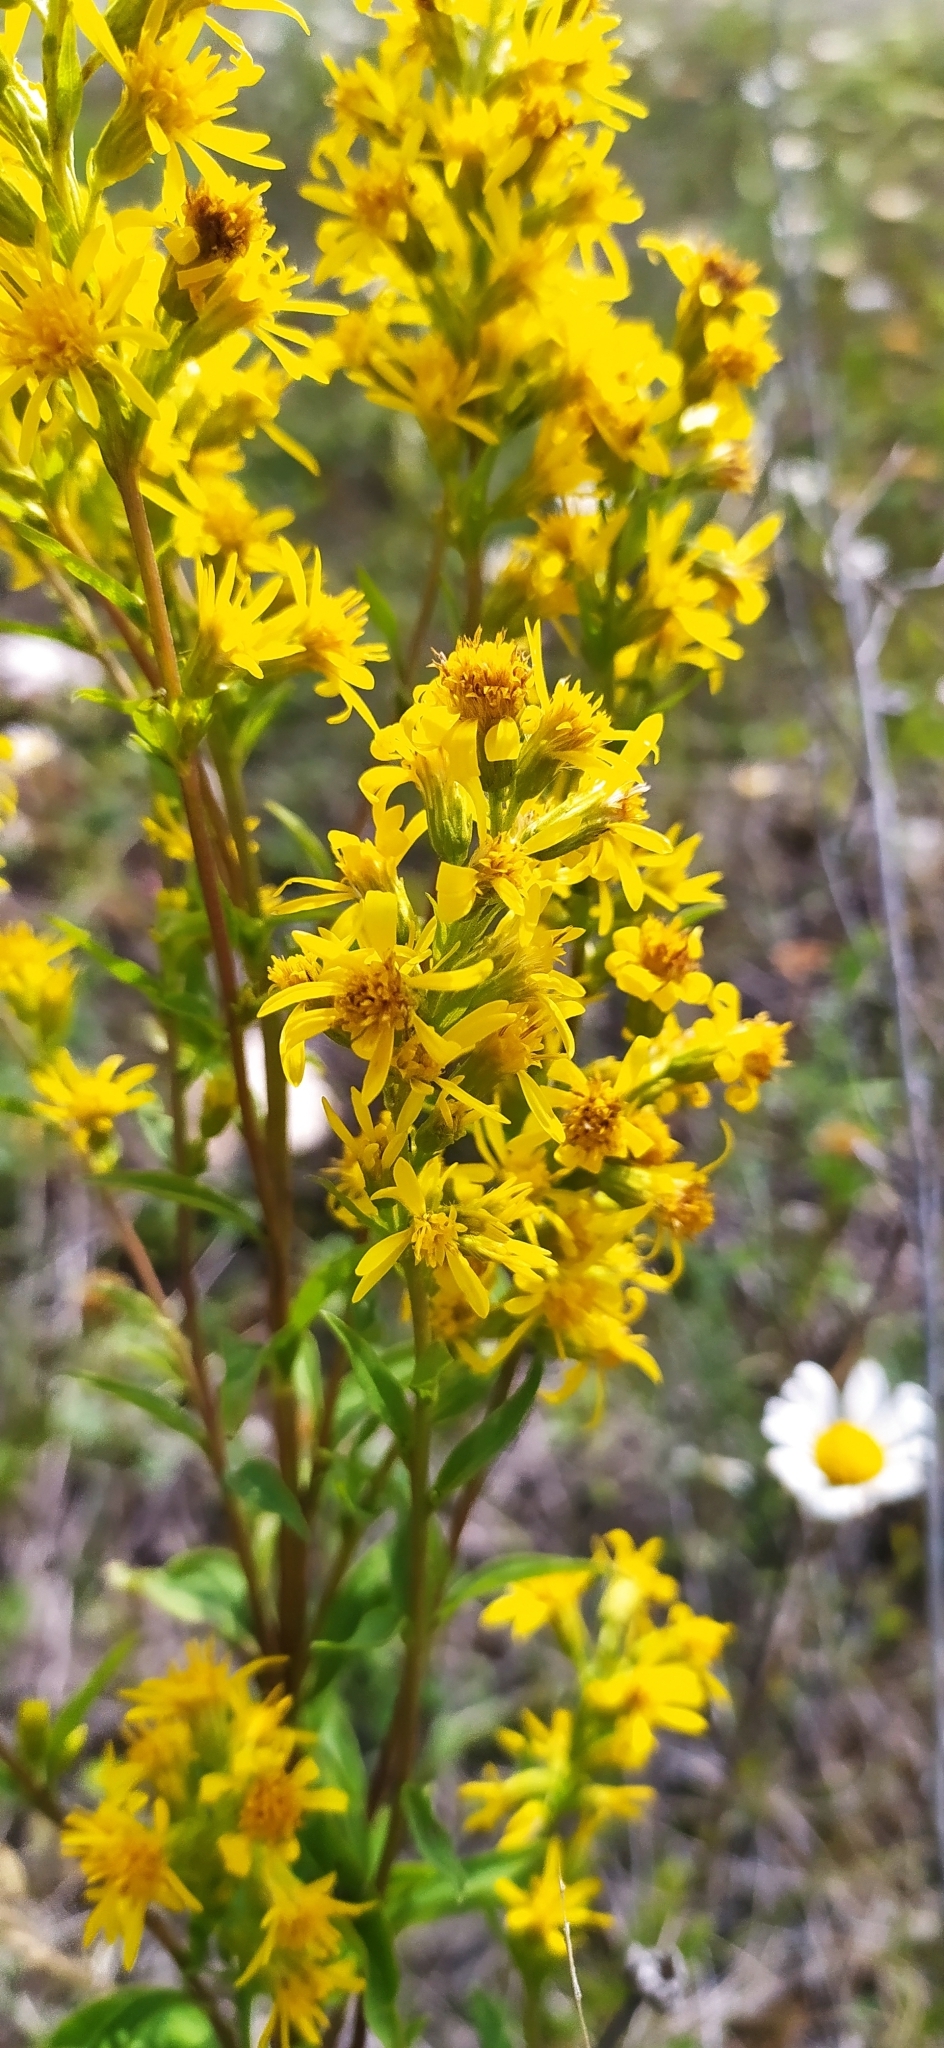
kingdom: Plantae
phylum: Tracheophyta
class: Magnoliopsida
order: Asterales
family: Asteraceae
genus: Solidago
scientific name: Solidago virgaurea
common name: Goldenrod
